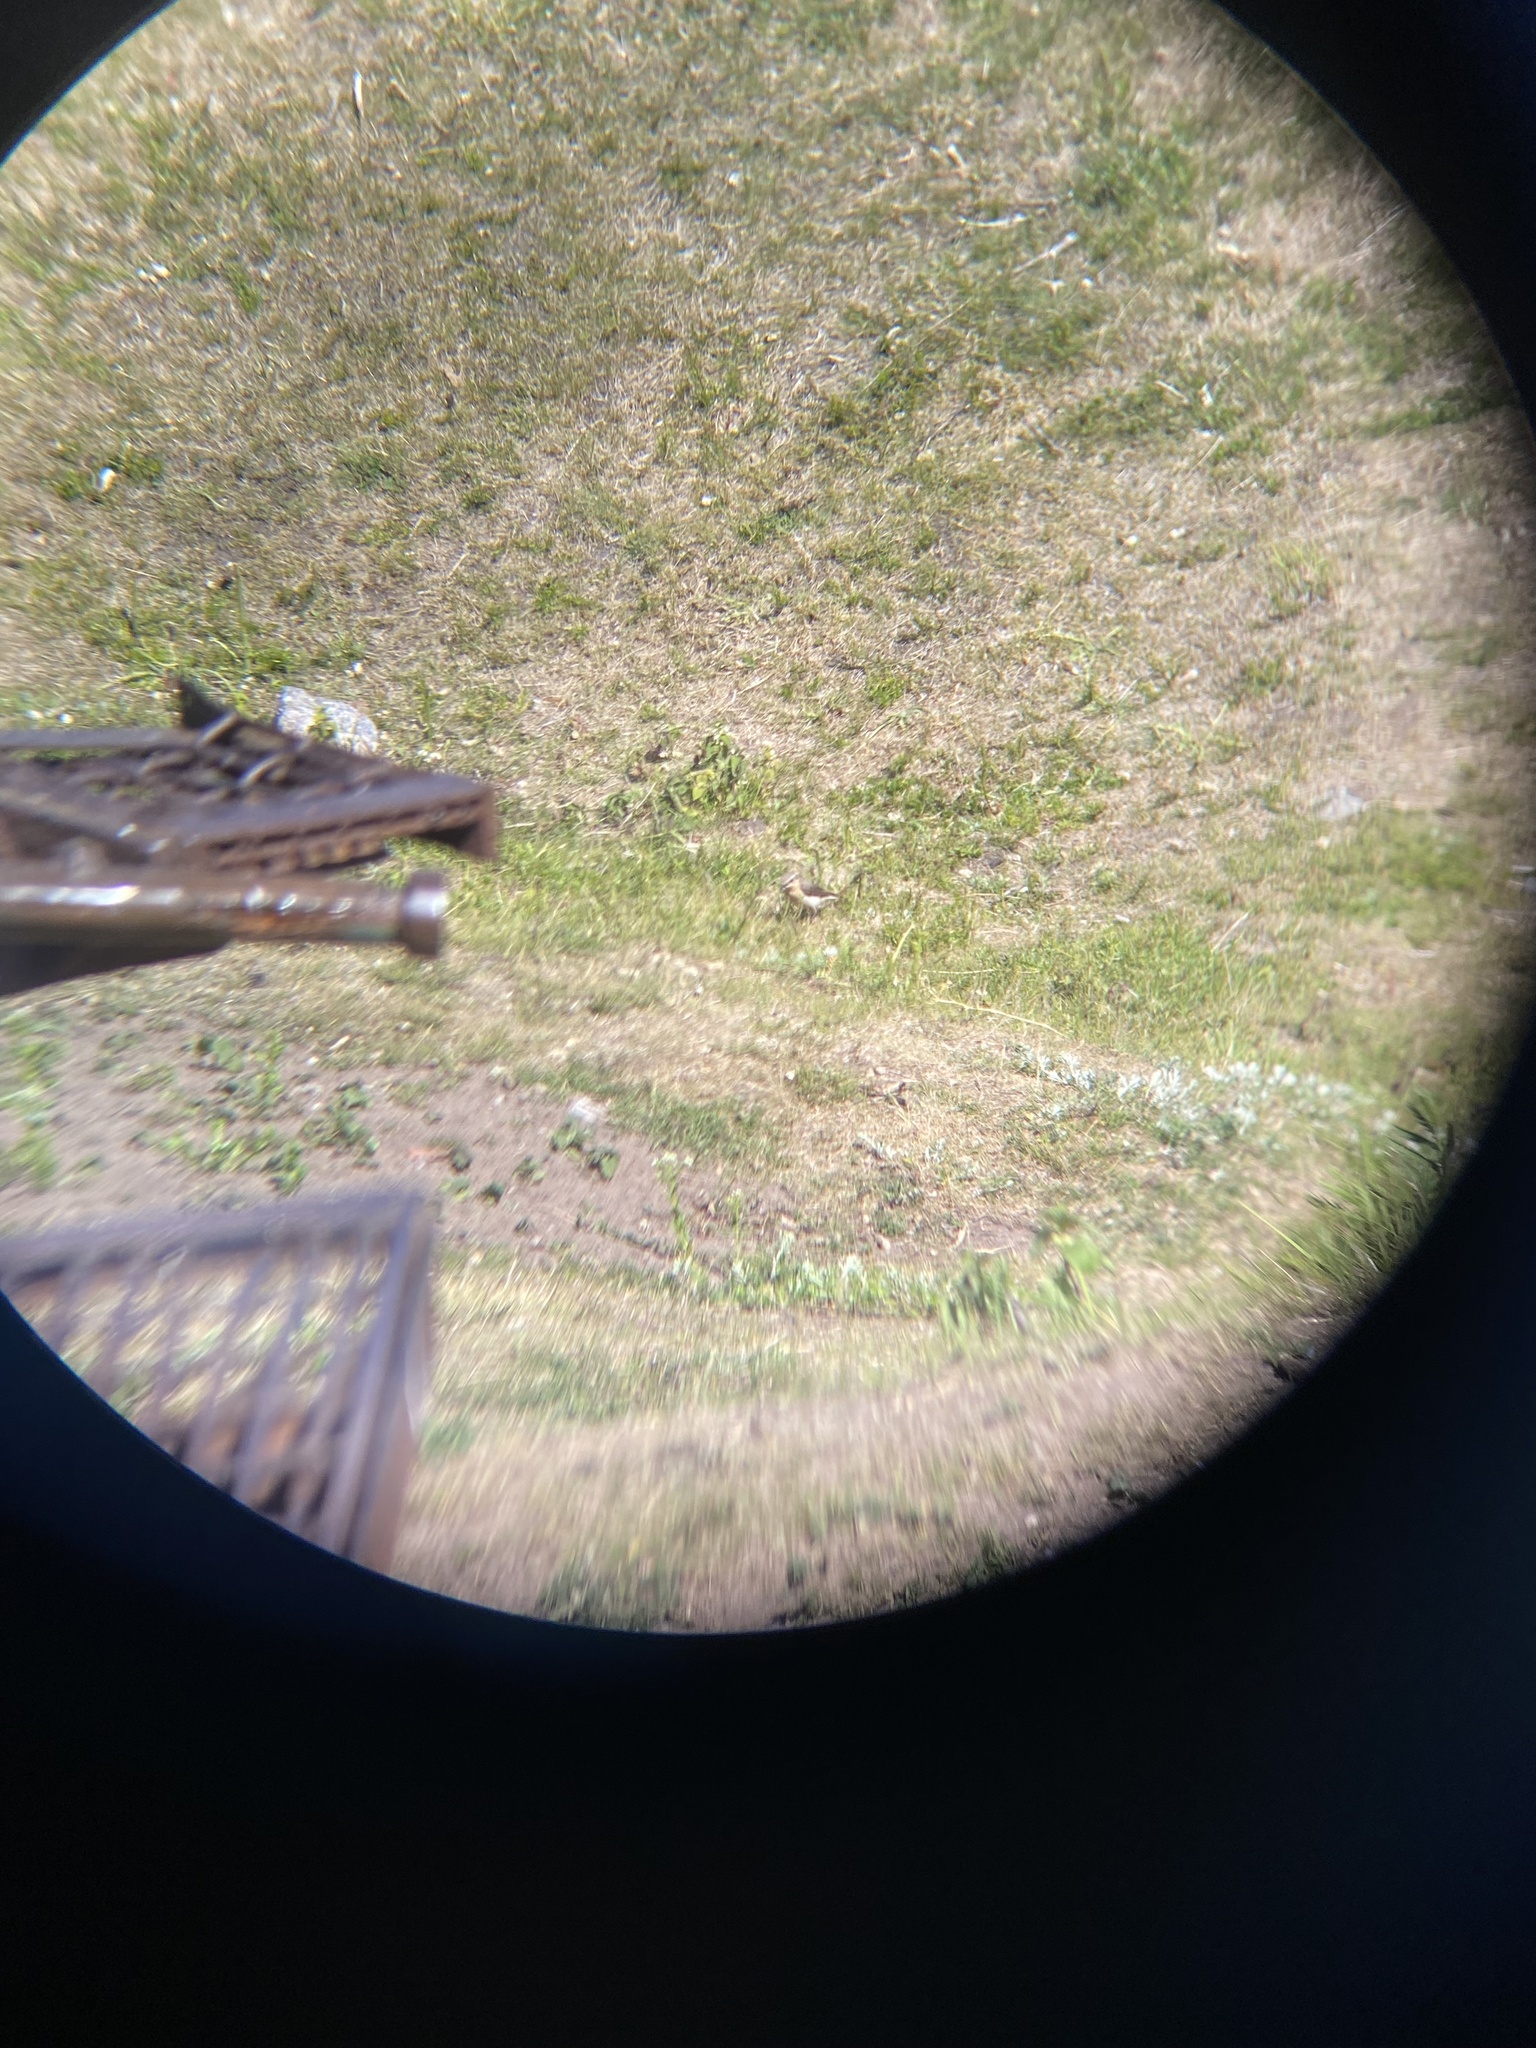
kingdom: Animalia
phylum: Chordata
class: Aves
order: Passeriformes
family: Muscicapidae
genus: Oenanthe
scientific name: Oenanthe oenanthe
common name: Northern wheatear
